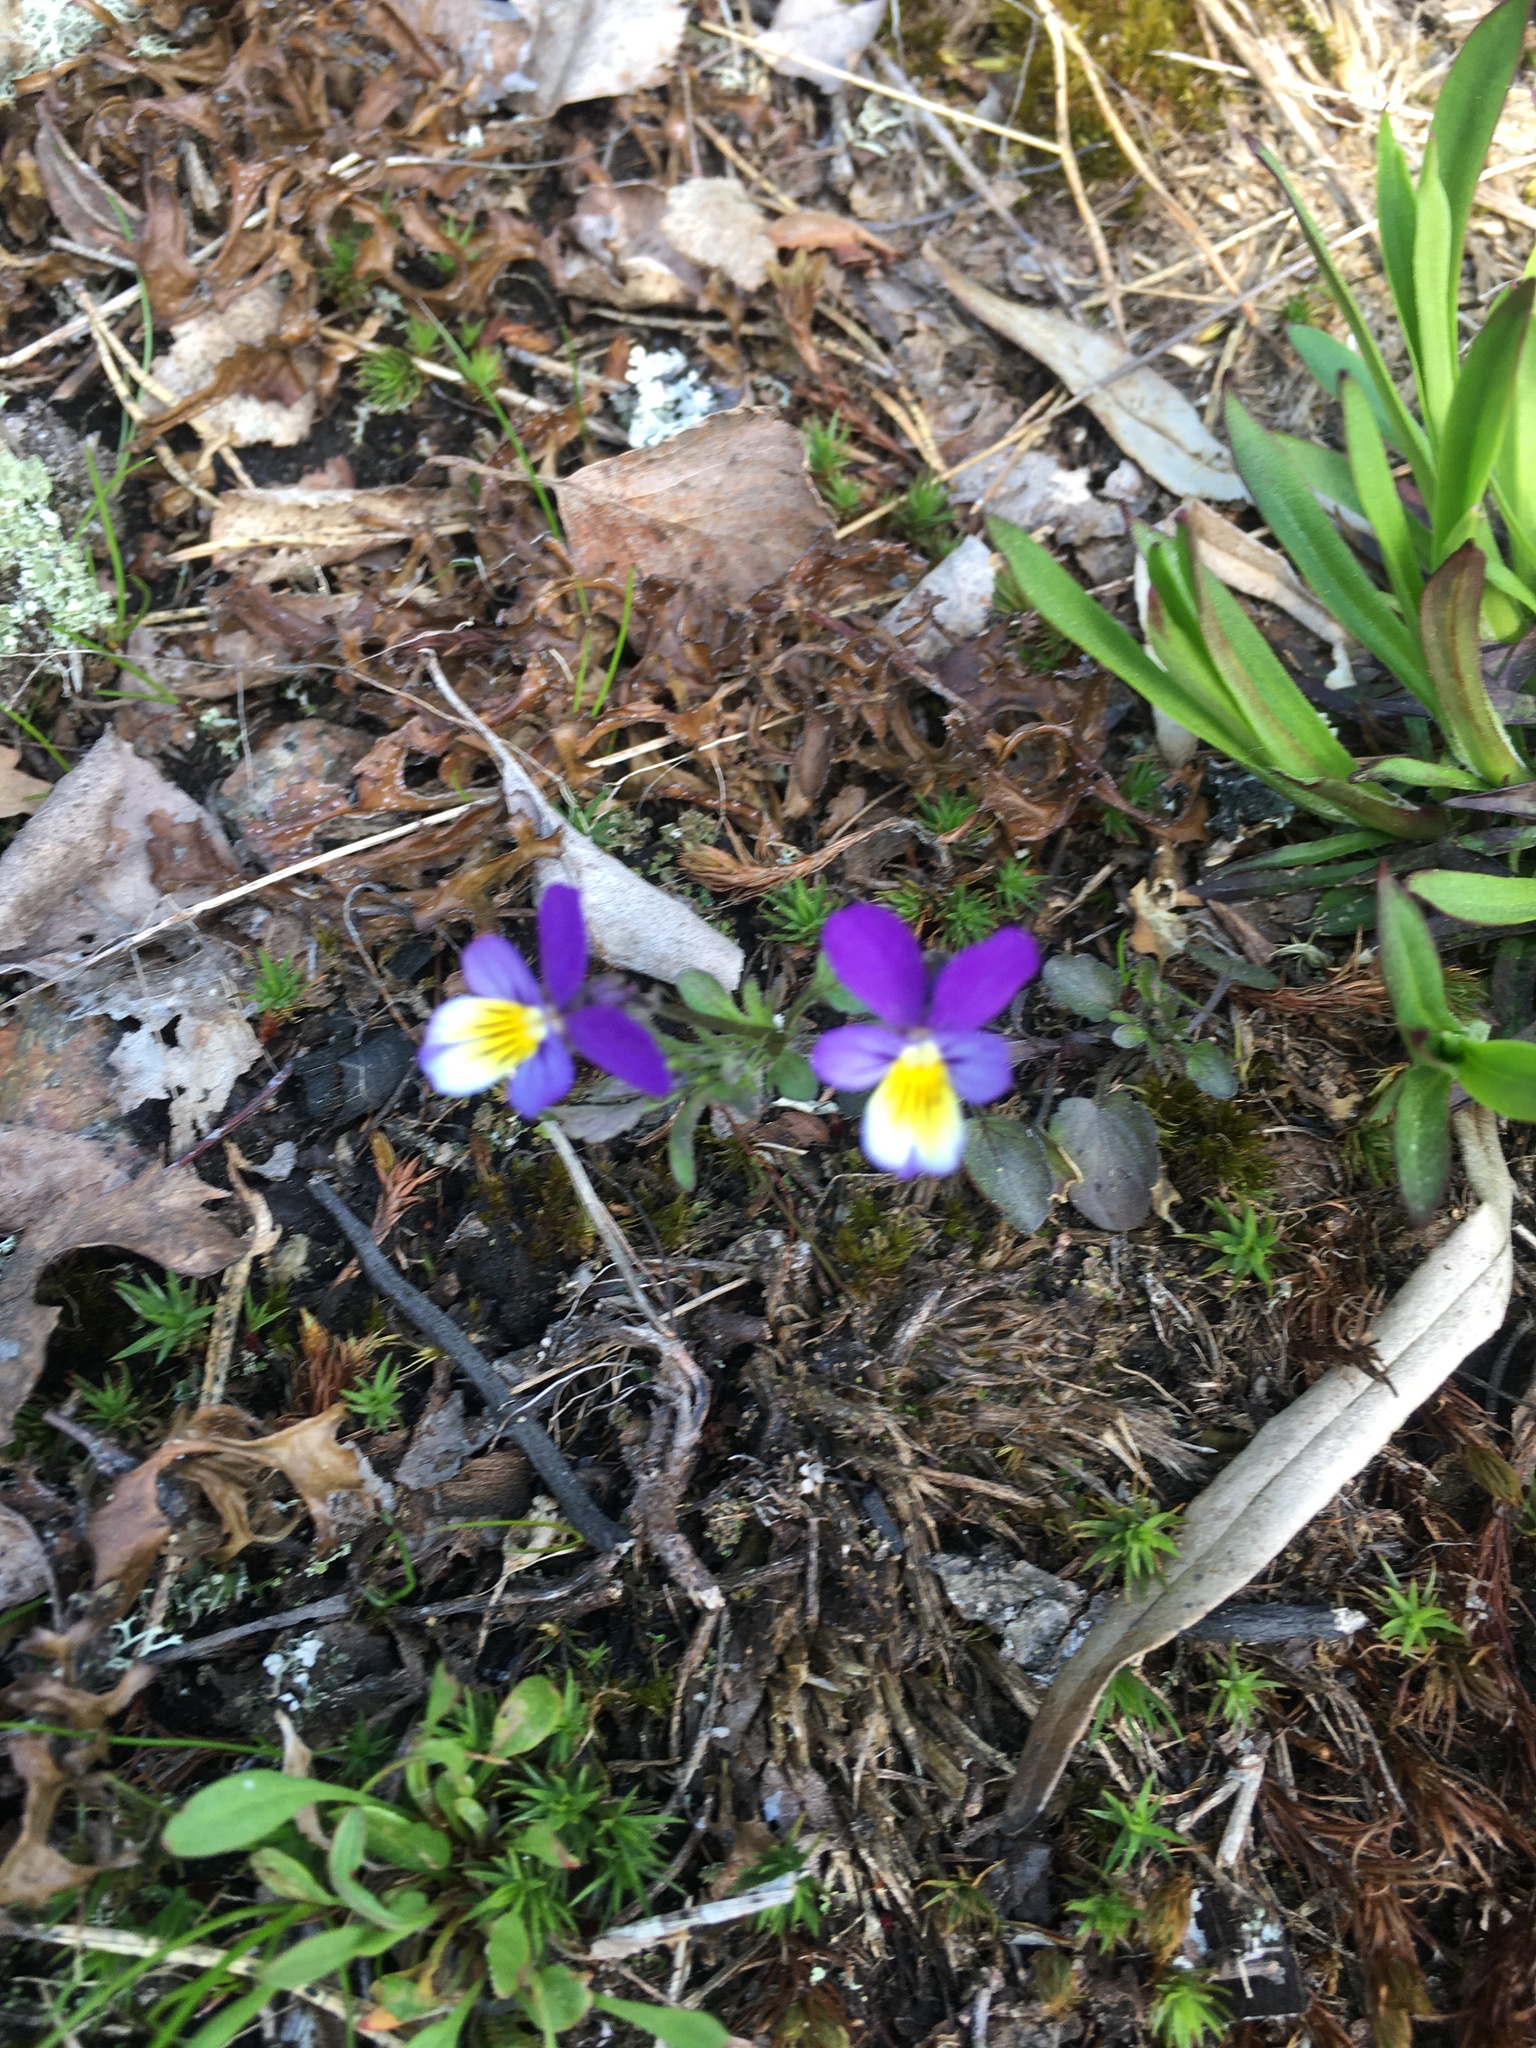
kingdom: Plantae
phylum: Tracheophyta
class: Magnoliopsida
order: Malpighiales
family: Violaceae
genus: Viola
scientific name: Viola tricolor
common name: Pansy
